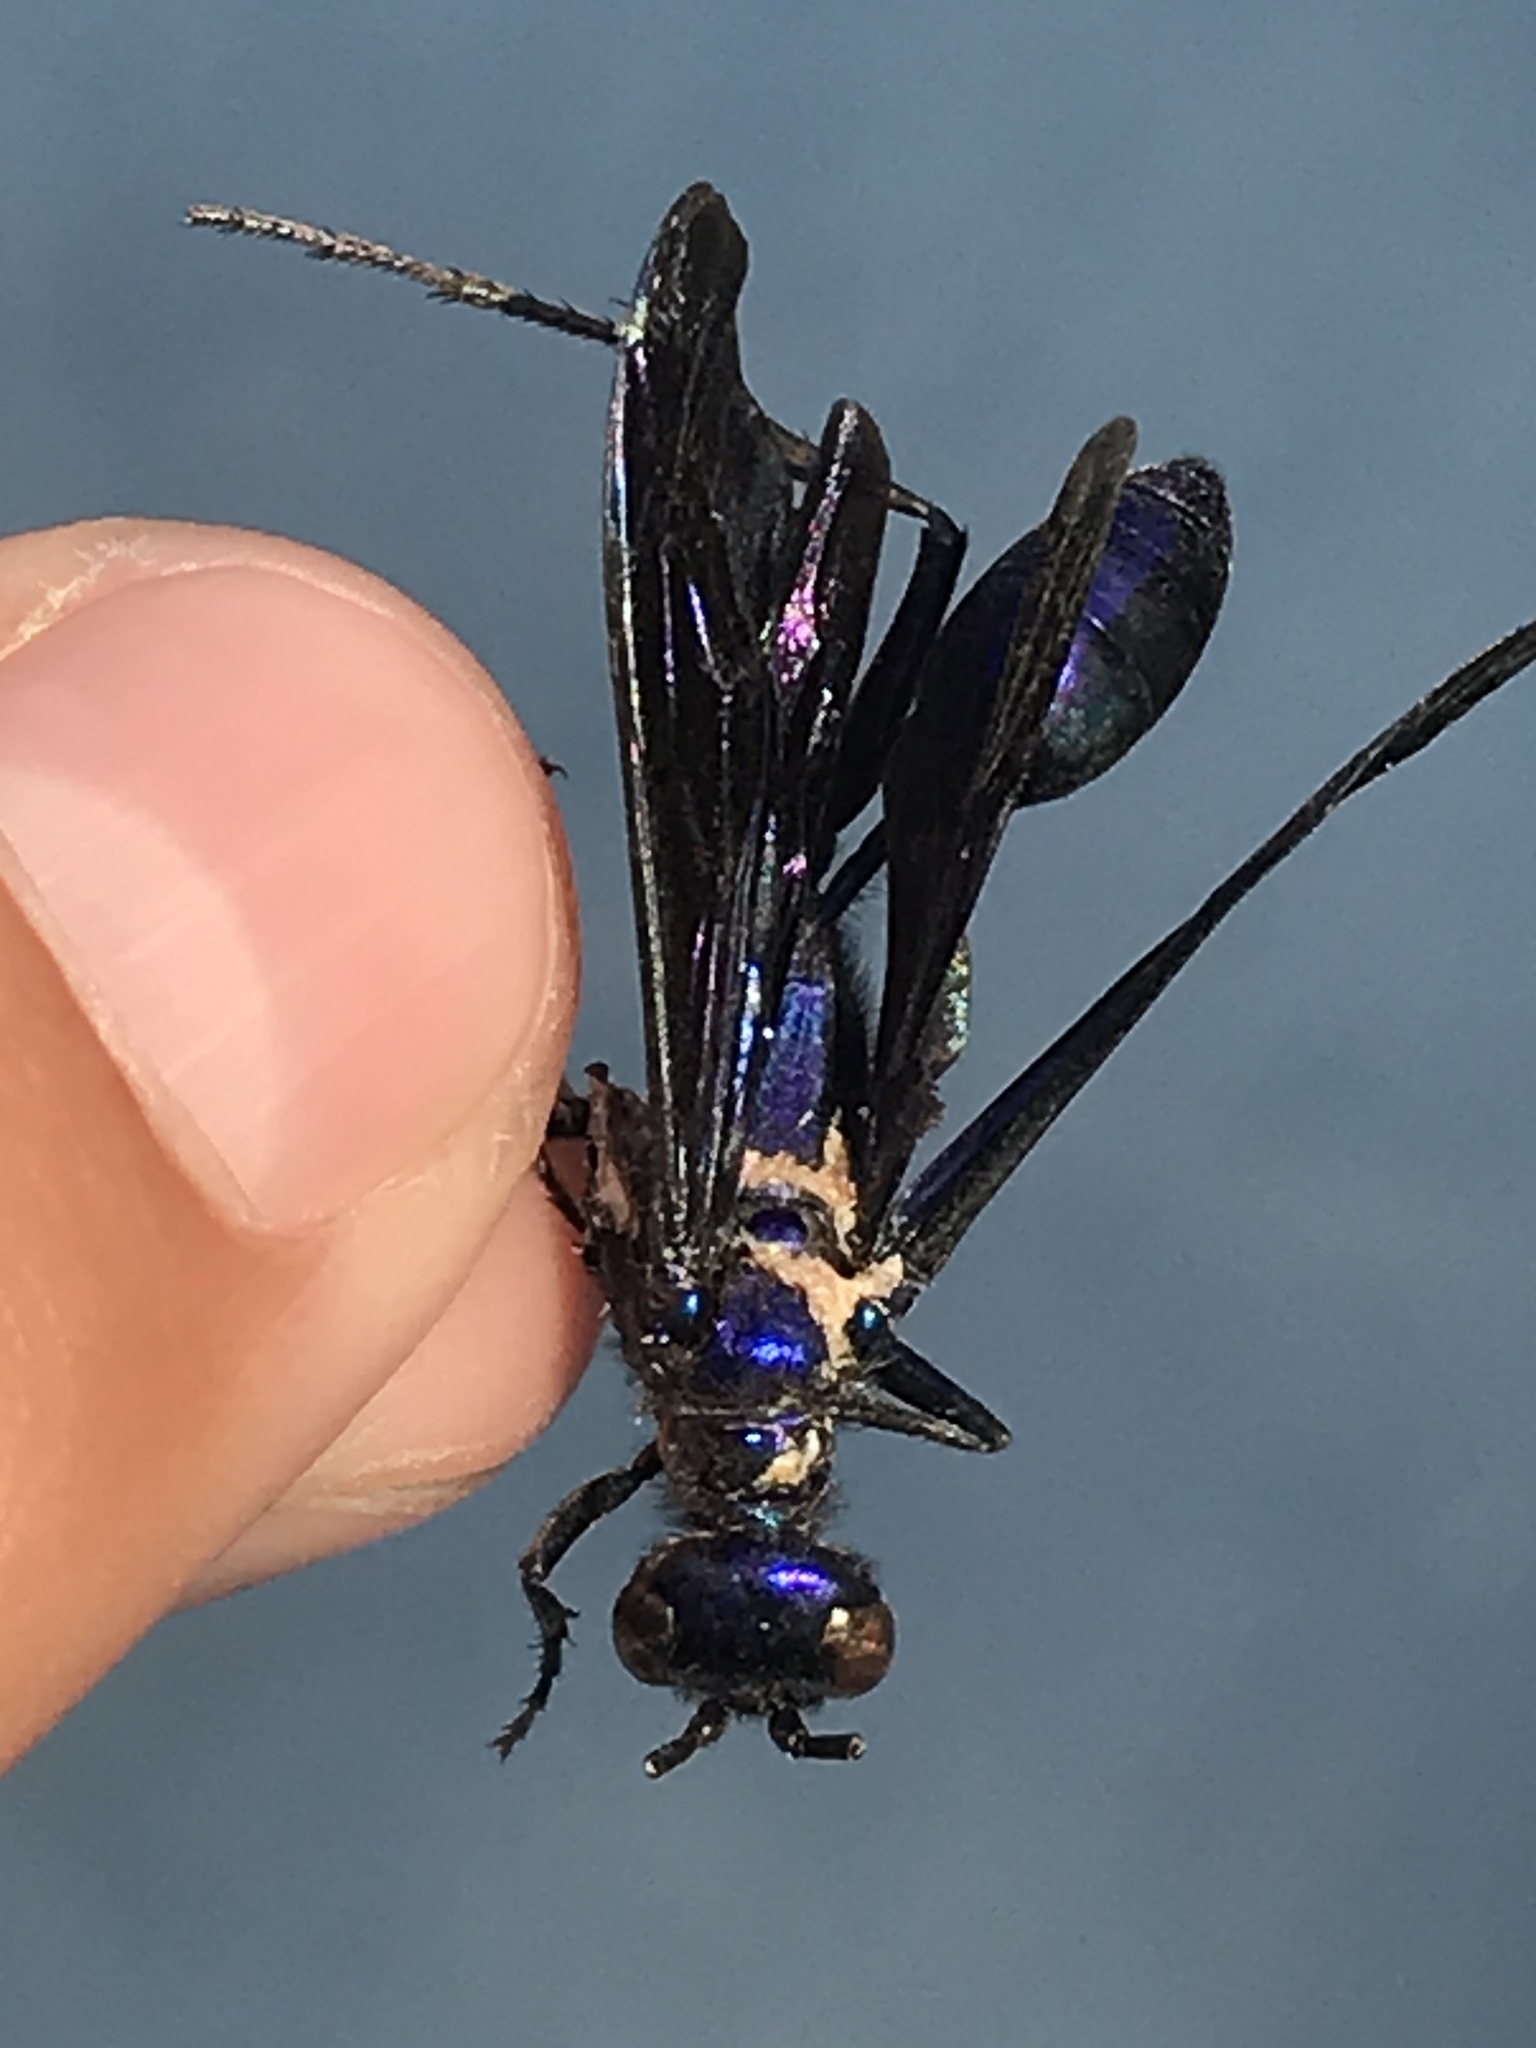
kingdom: Animalia
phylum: Arthropoda
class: Insecta
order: Hymenoptera
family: Sphecidae
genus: Chlorion
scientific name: Chlorion aerarium
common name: Steel-blue cricket hunter
